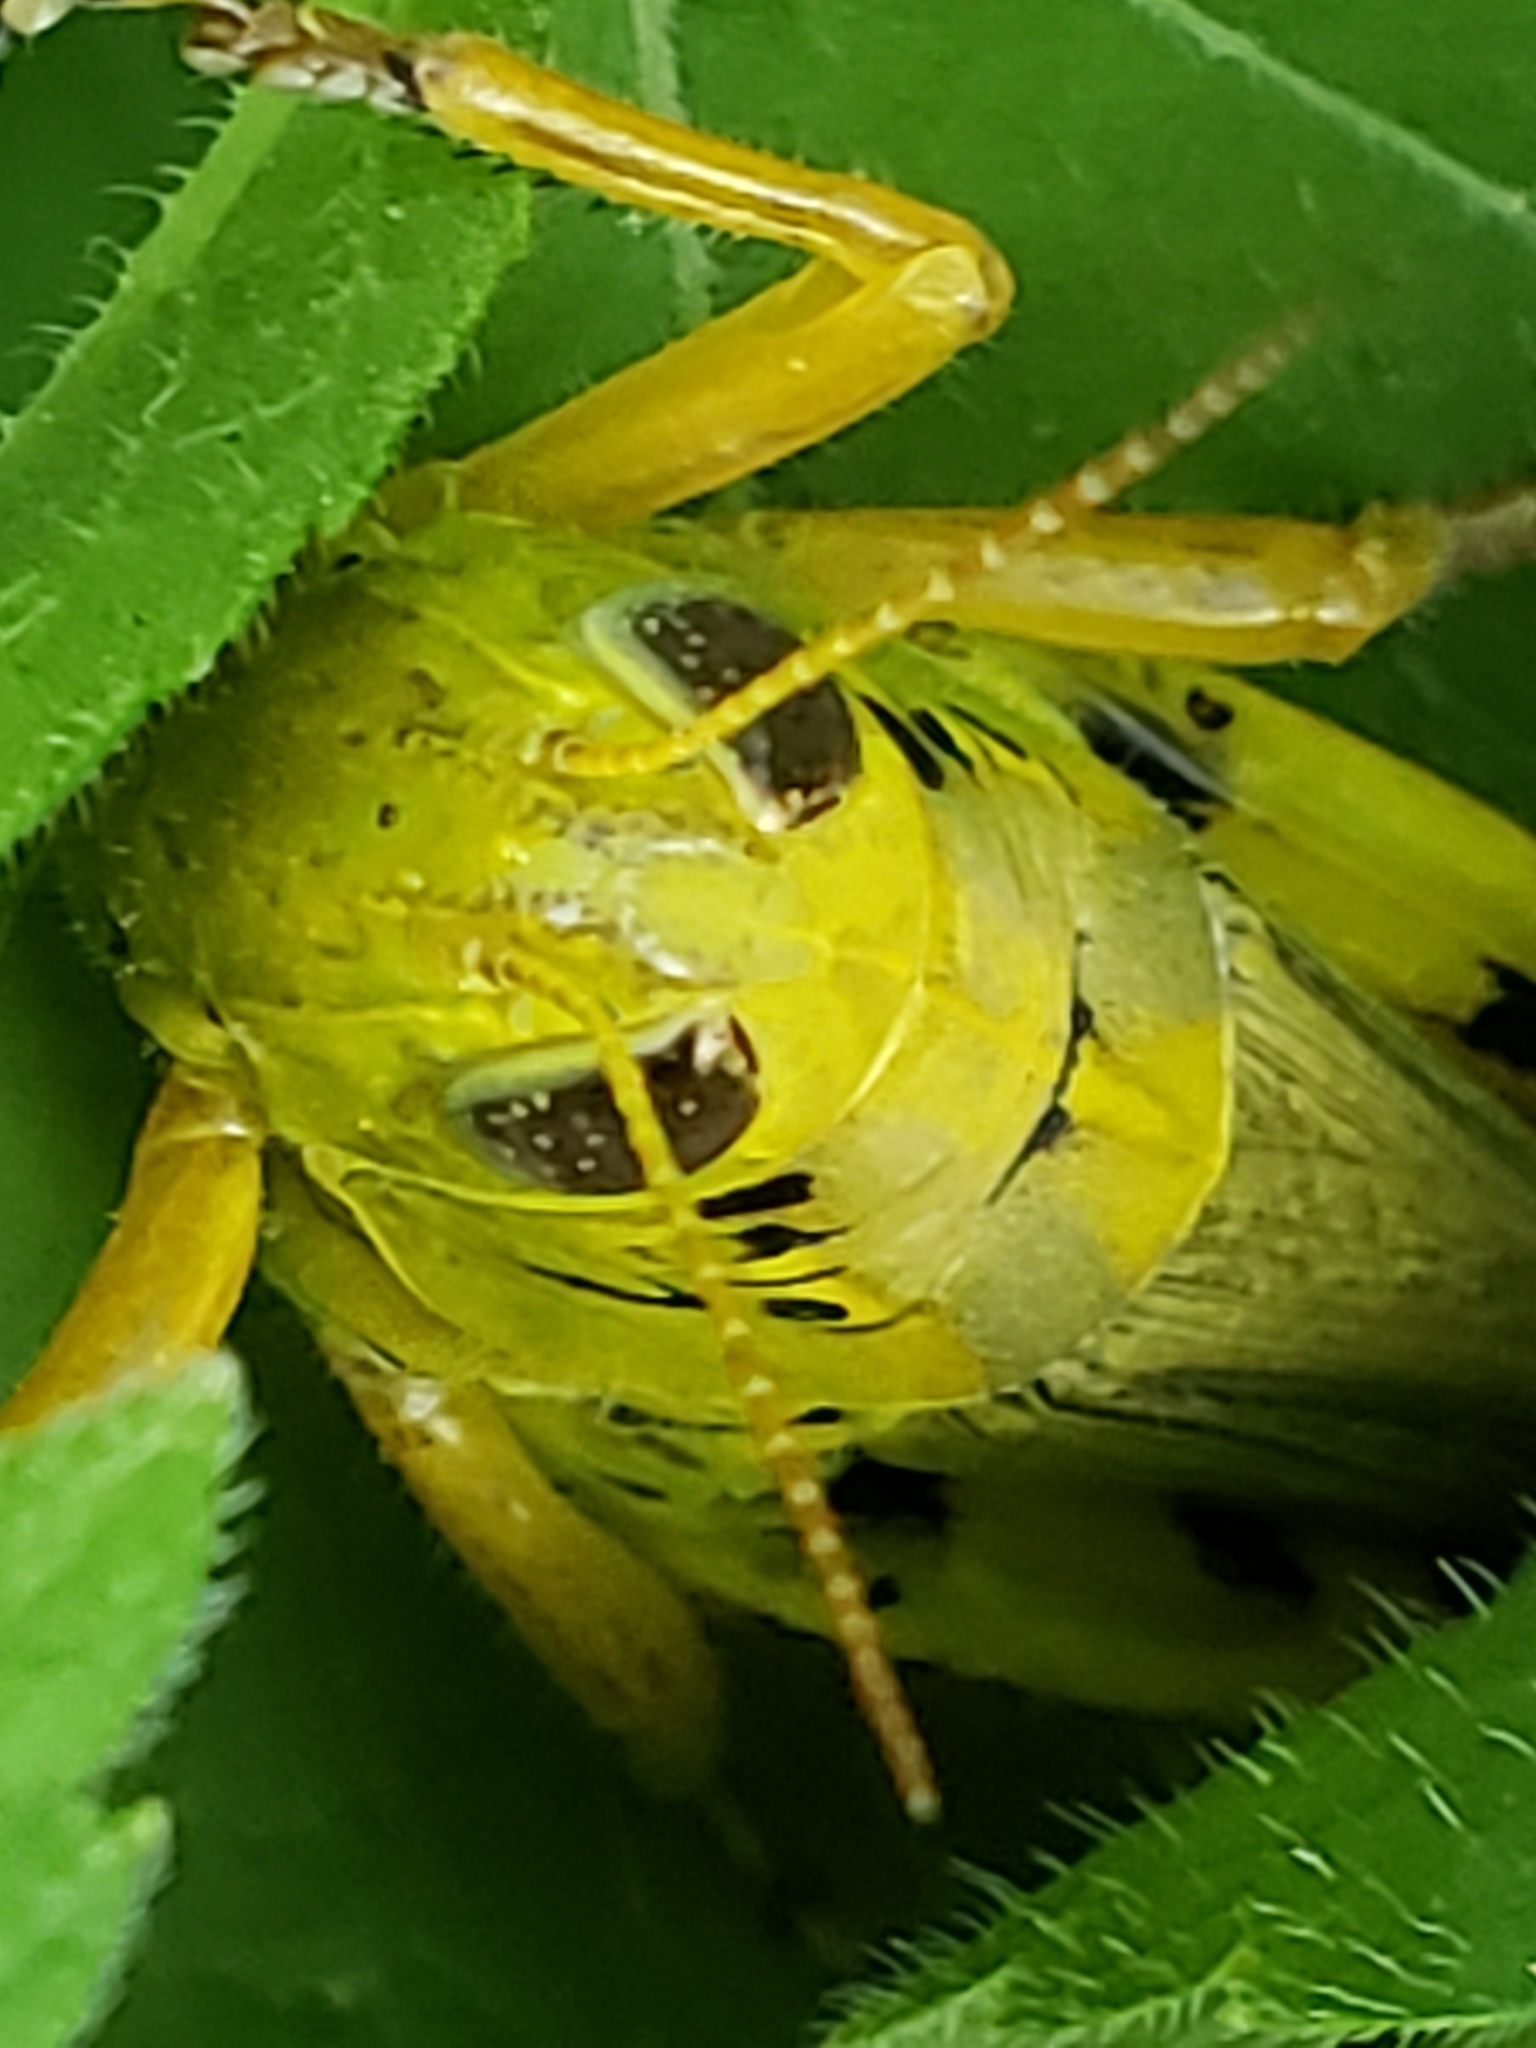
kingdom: Animalia
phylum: Arthropoda
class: Insecta
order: Orthoptera
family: Acrididae
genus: Melanoplus
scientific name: Melanoplus differentialis
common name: Differential grasshopper
